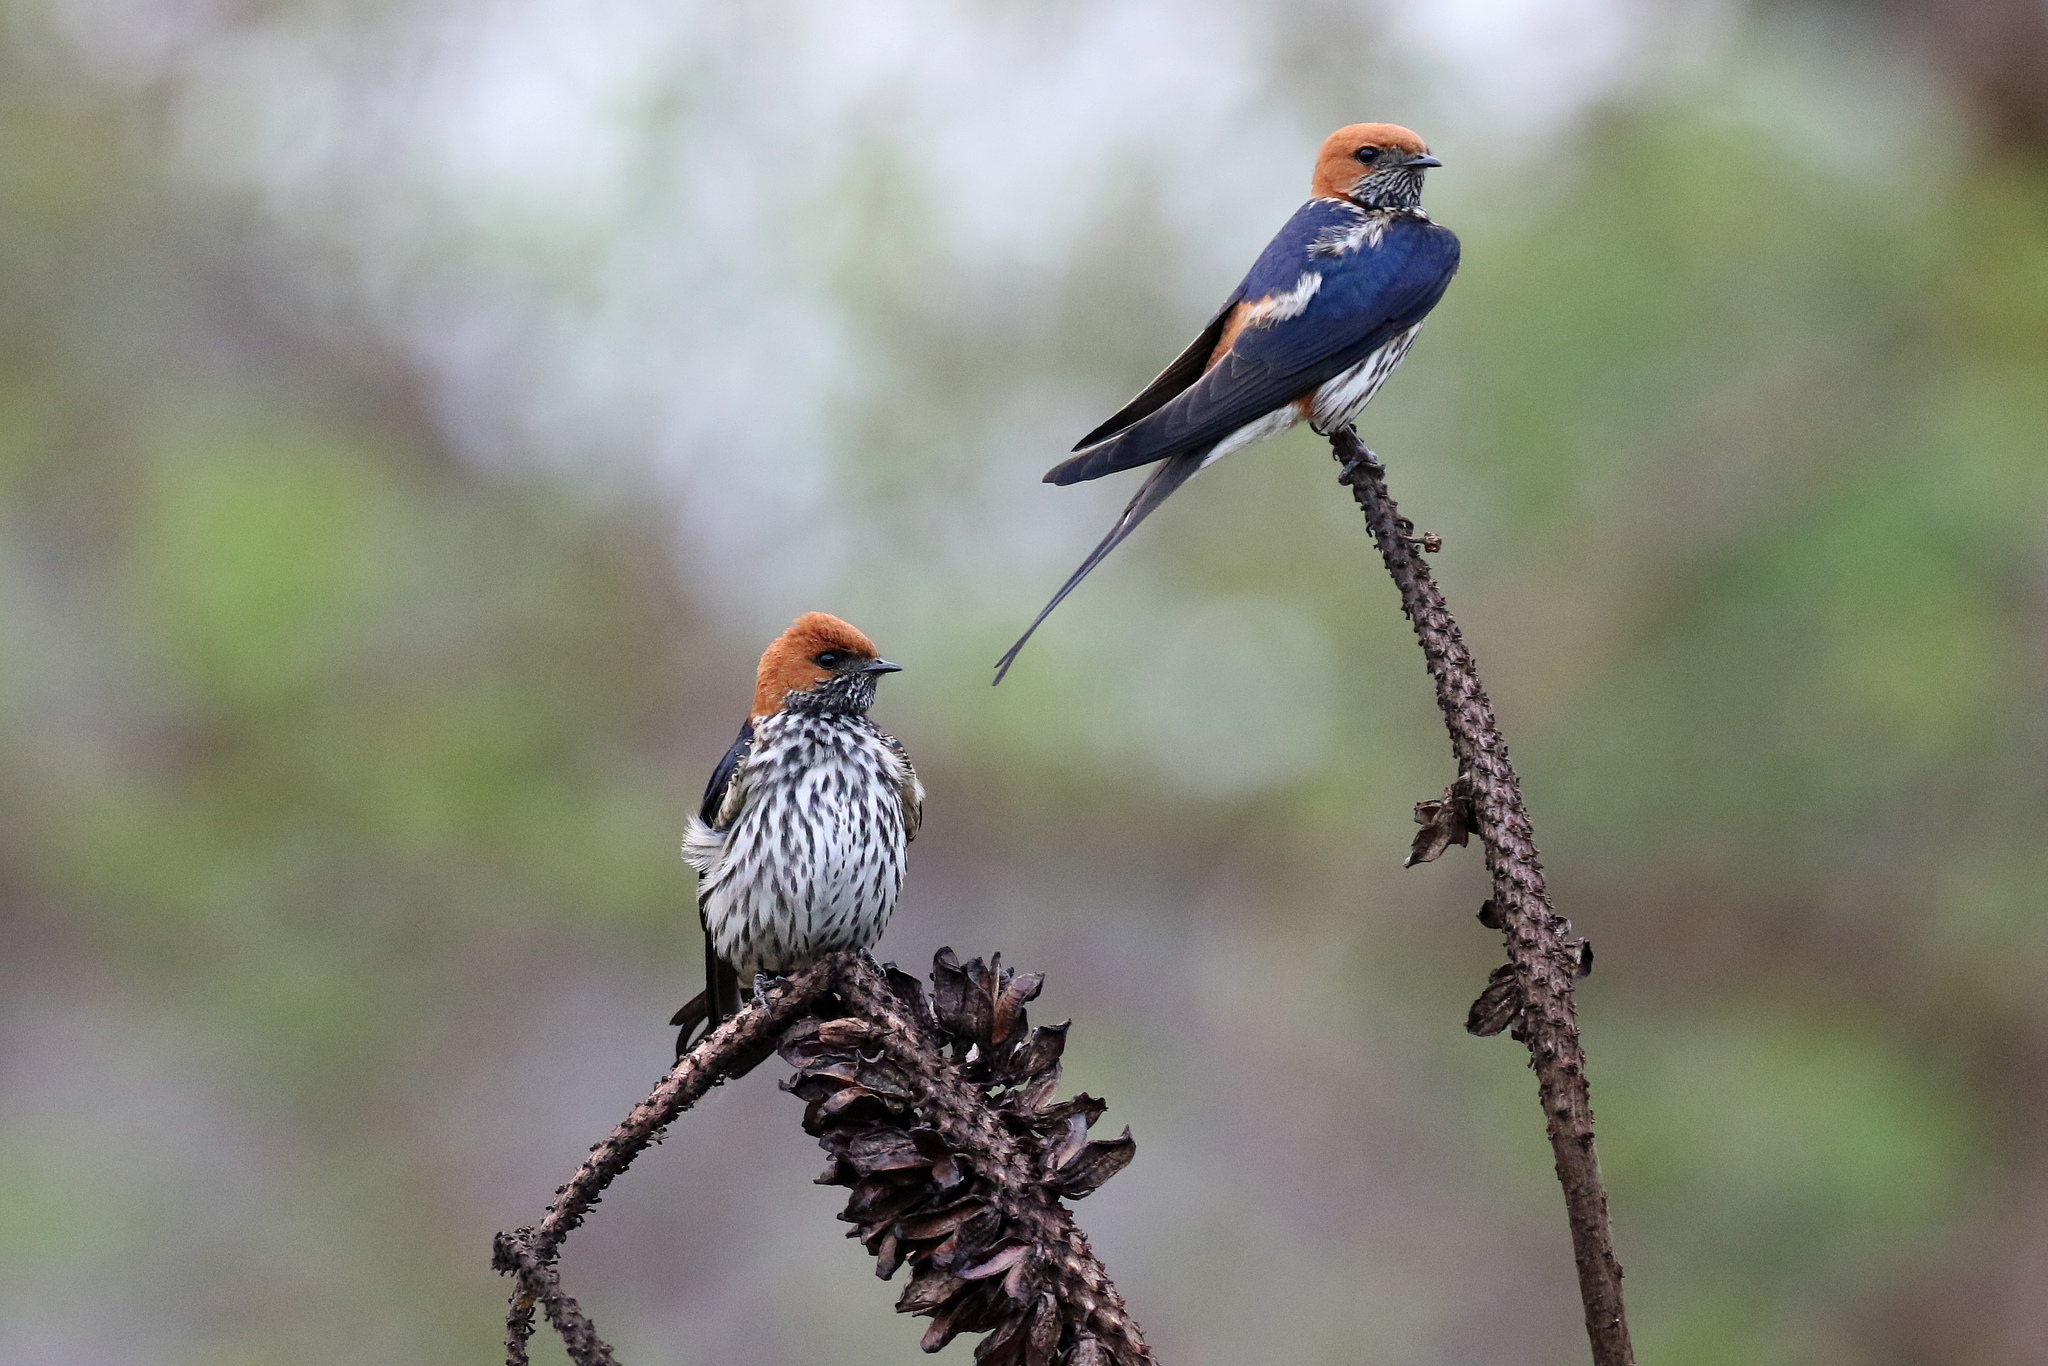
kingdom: Animalia
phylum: Chordata
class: Aves
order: Passeriformes
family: Hirundinidae
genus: Cecropis
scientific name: Cecropis abyssinica
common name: Lesser striped-swallow
